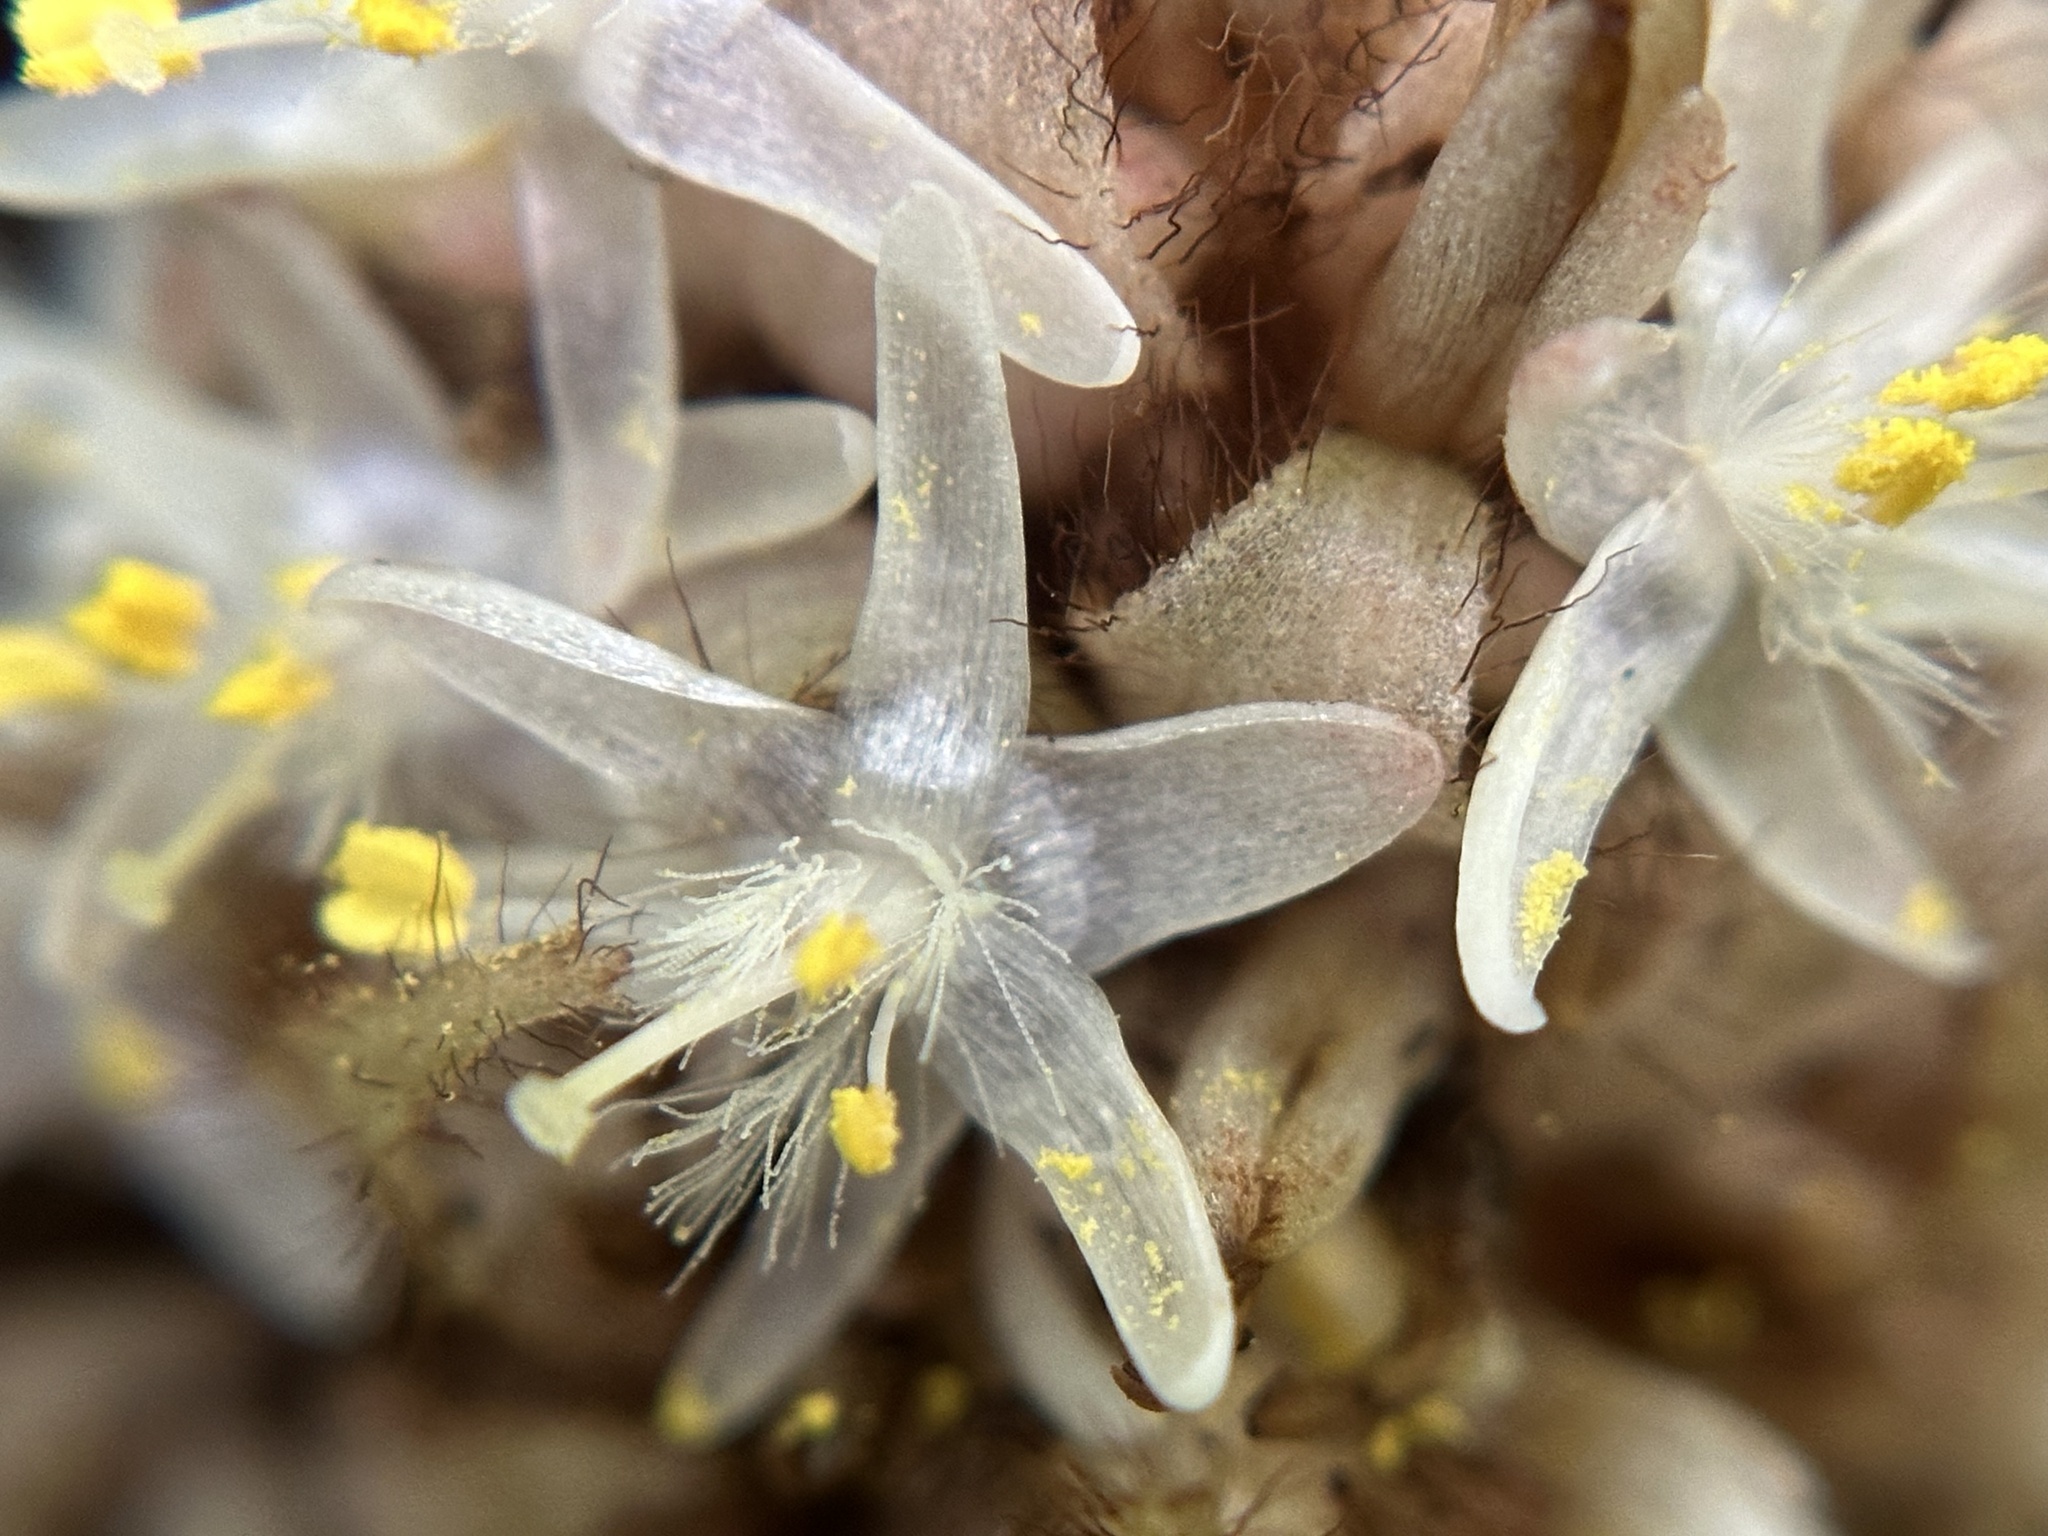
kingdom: Plantae
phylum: Tracheophyta
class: Liliopsida
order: Commelinales
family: Commelinaceae
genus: Palisota
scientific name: Palisota bracteosa
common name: Palisota
